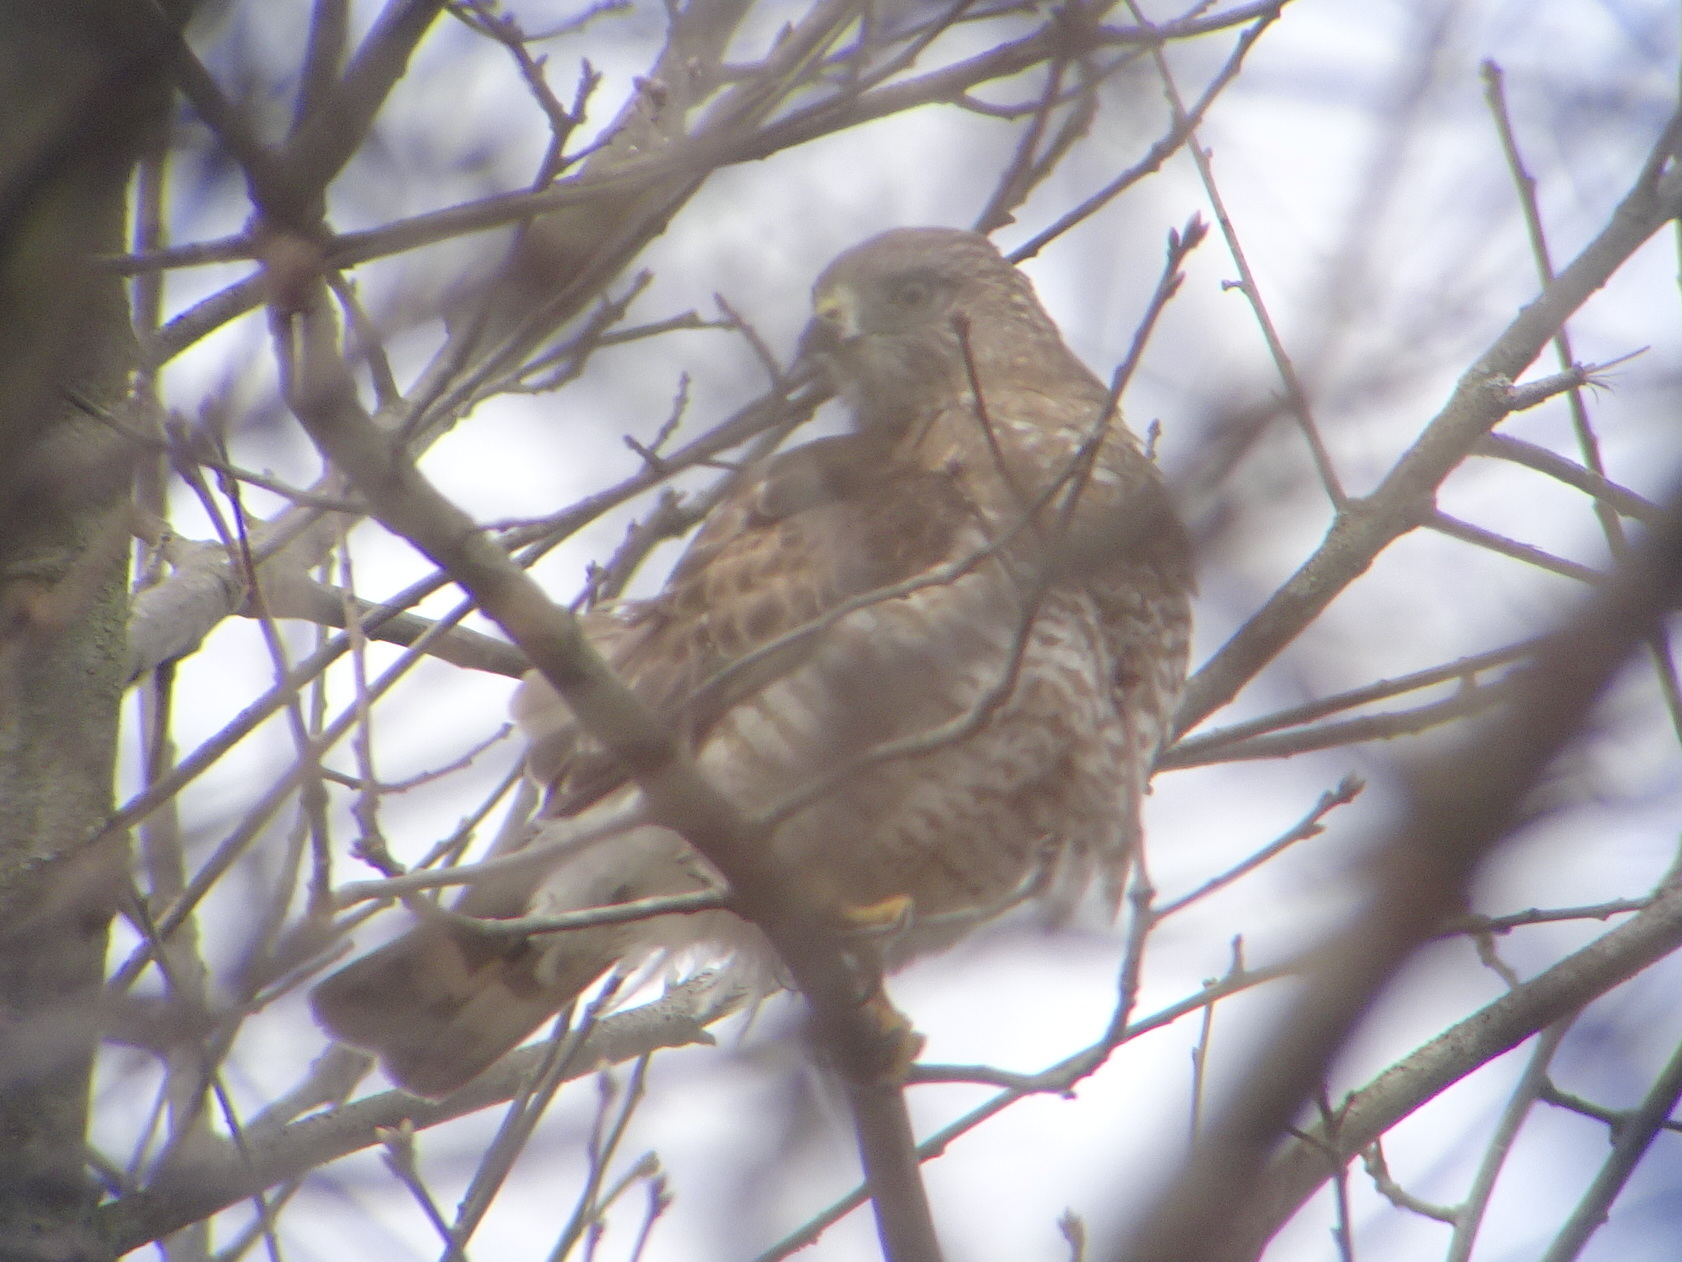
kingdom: Animalia
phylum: Chordata
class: Aves
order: Accipitriformes
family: Accipitridae
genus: Buteo
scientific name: Buteo platypterus
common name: Broad-winged hawk
